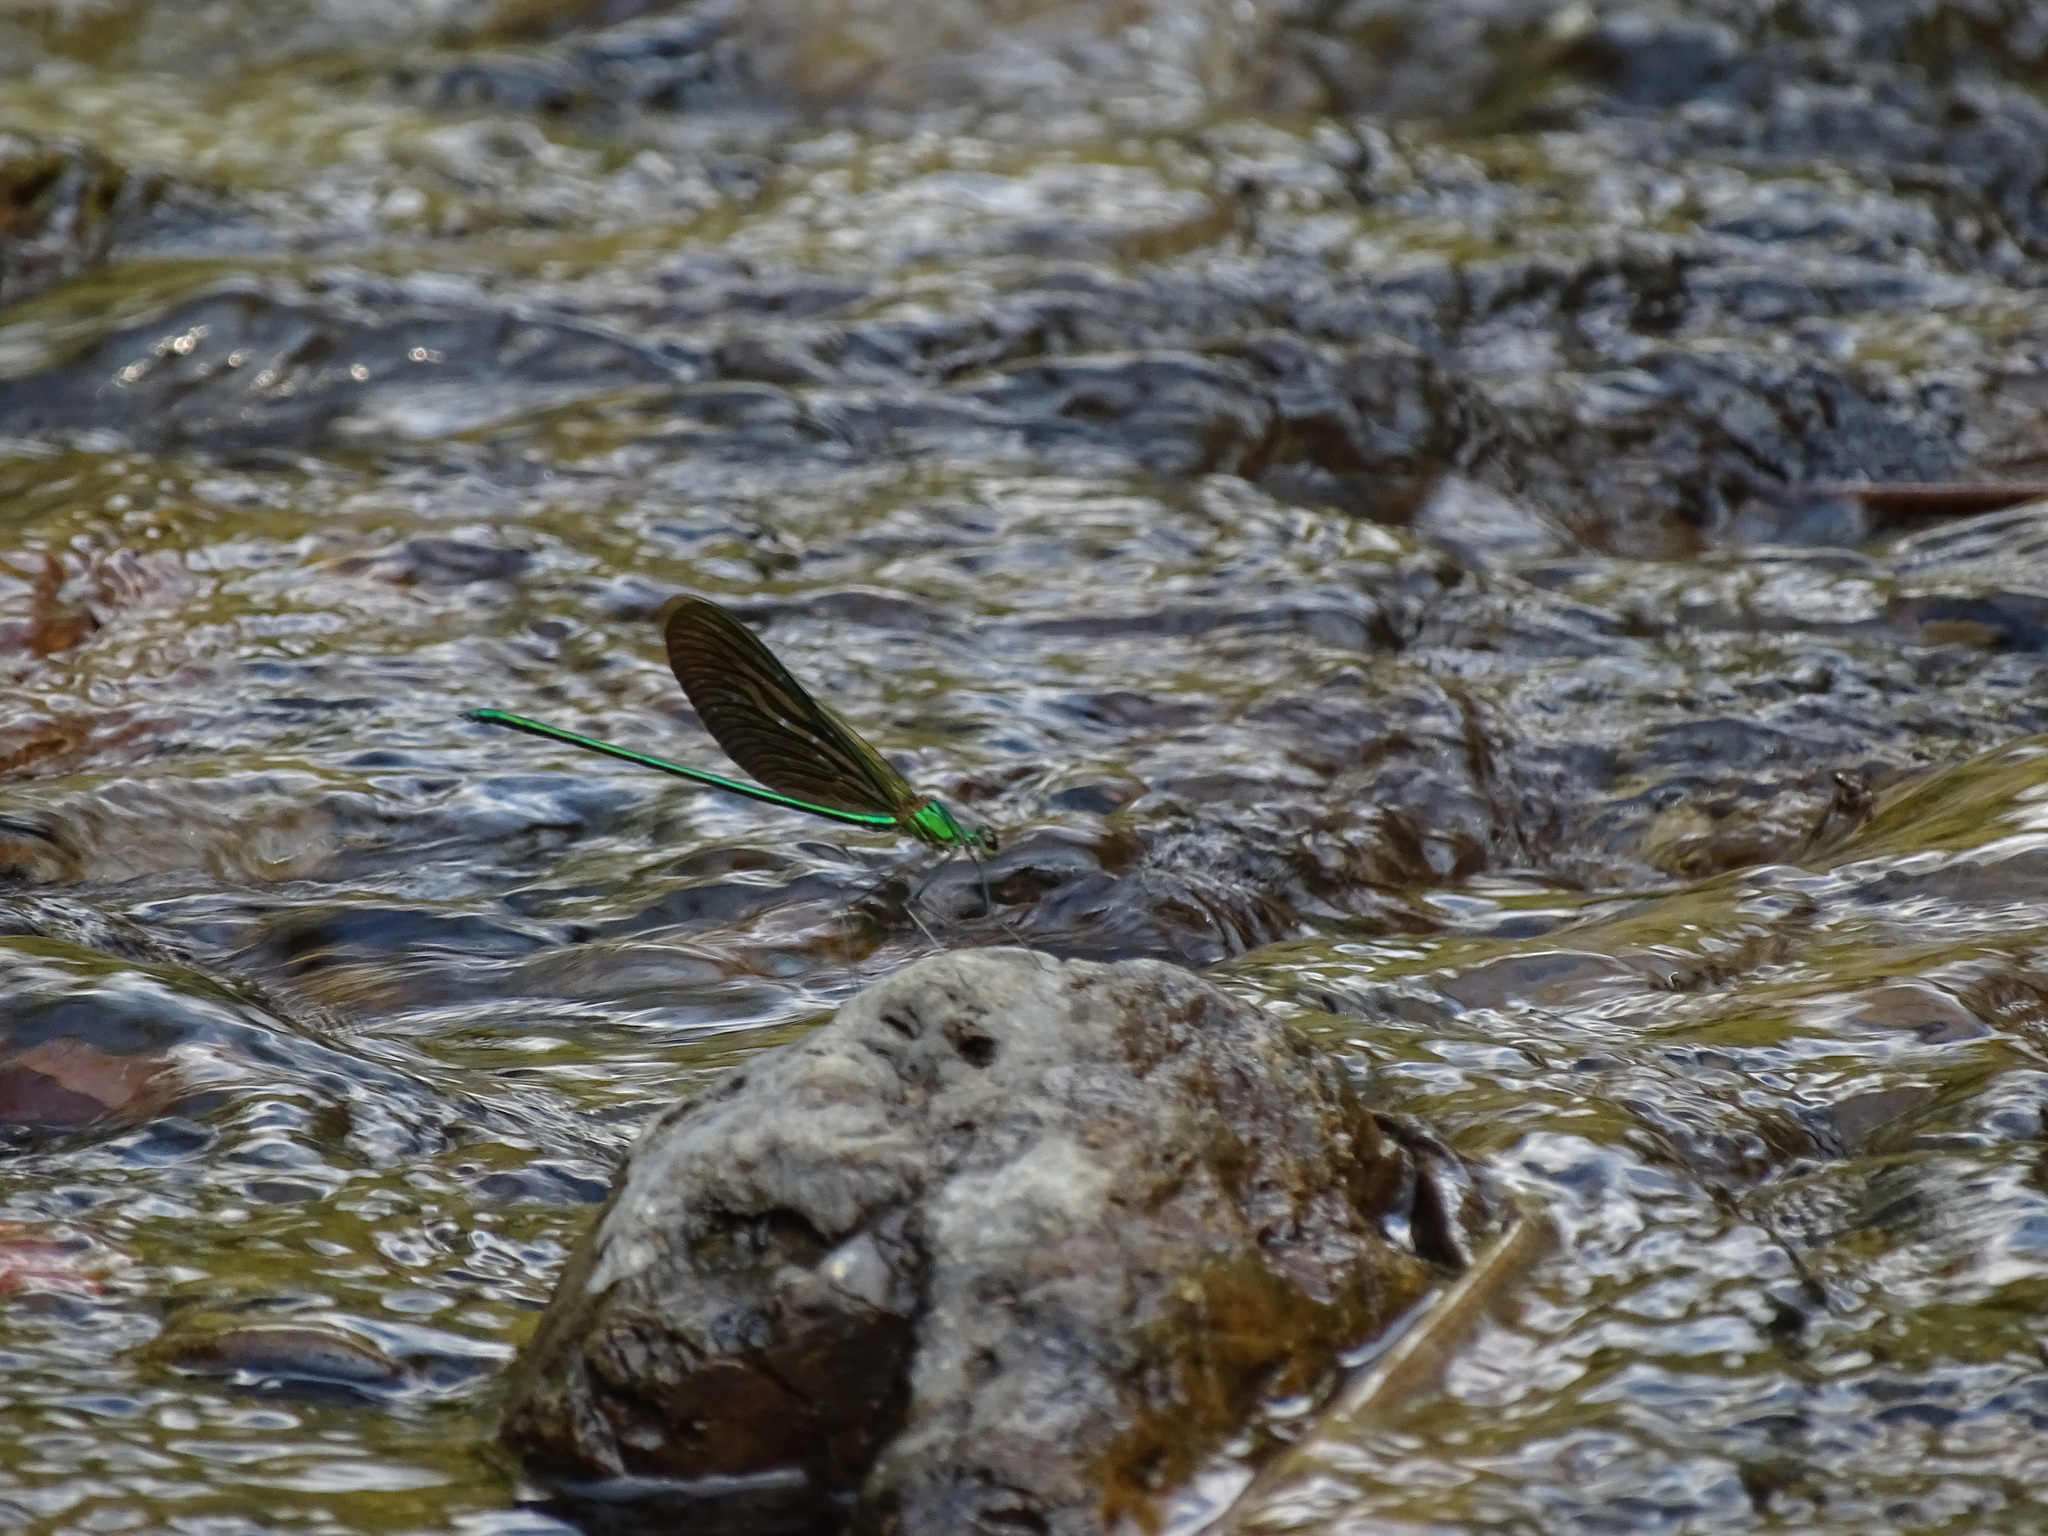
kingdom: Animalia
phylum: Arthropoda
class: Insecta
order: Odonata
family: Calopterygidae
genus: Neurobasis
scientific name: Neurobasis chinensis
